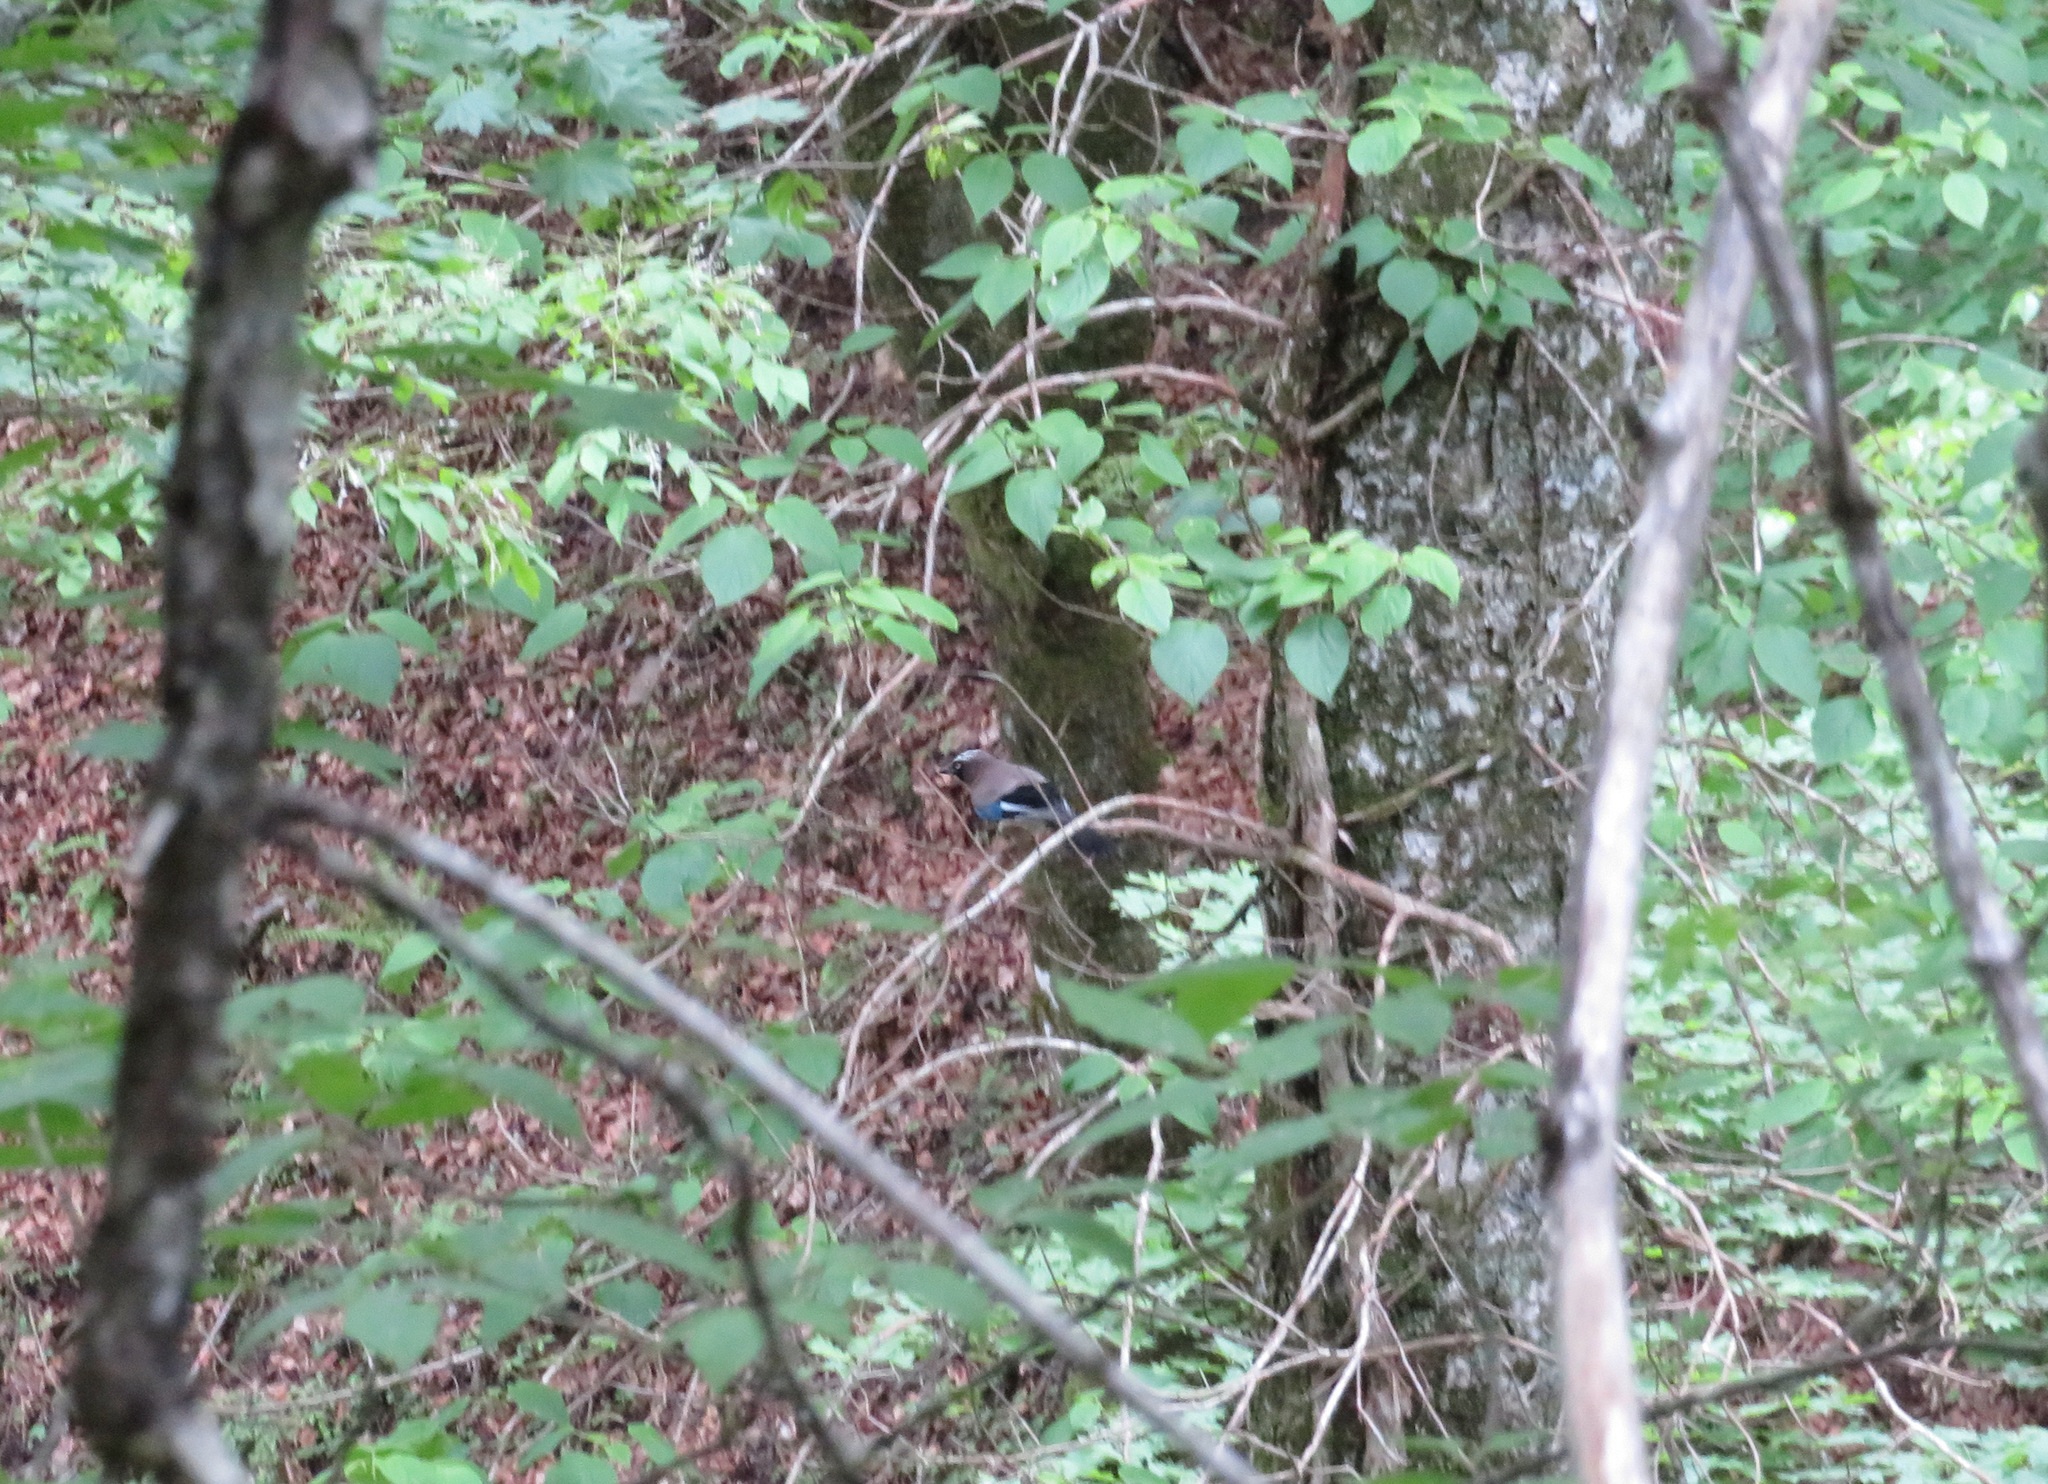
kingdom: Animalia
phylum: Chordata
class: Aves
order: Passeriformes
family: Corvidae
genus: Garrulus
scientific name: Garrulus glandarius
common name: Eurasian jay
